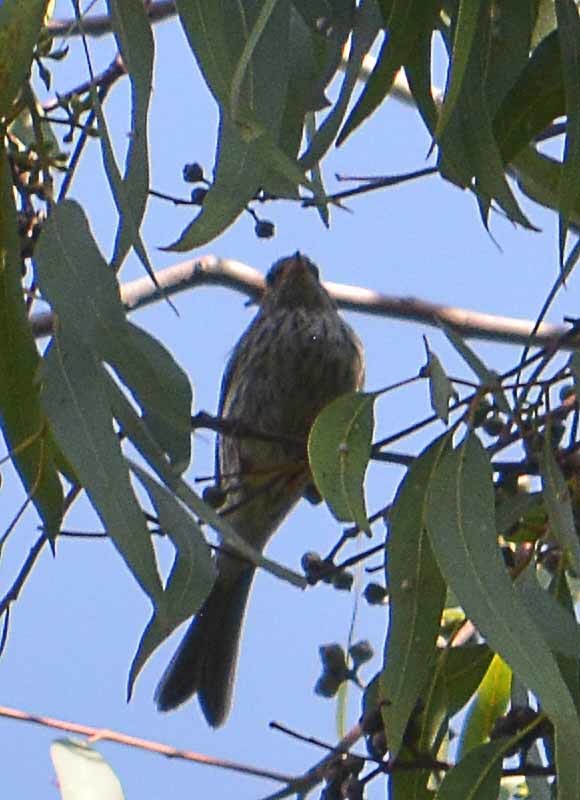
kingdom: Animalia
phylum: Chordata
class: Aves
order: Passeriformes
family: Passerellidae
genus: Spizella
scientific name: Spizella passerina
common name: Chipping sparrow
